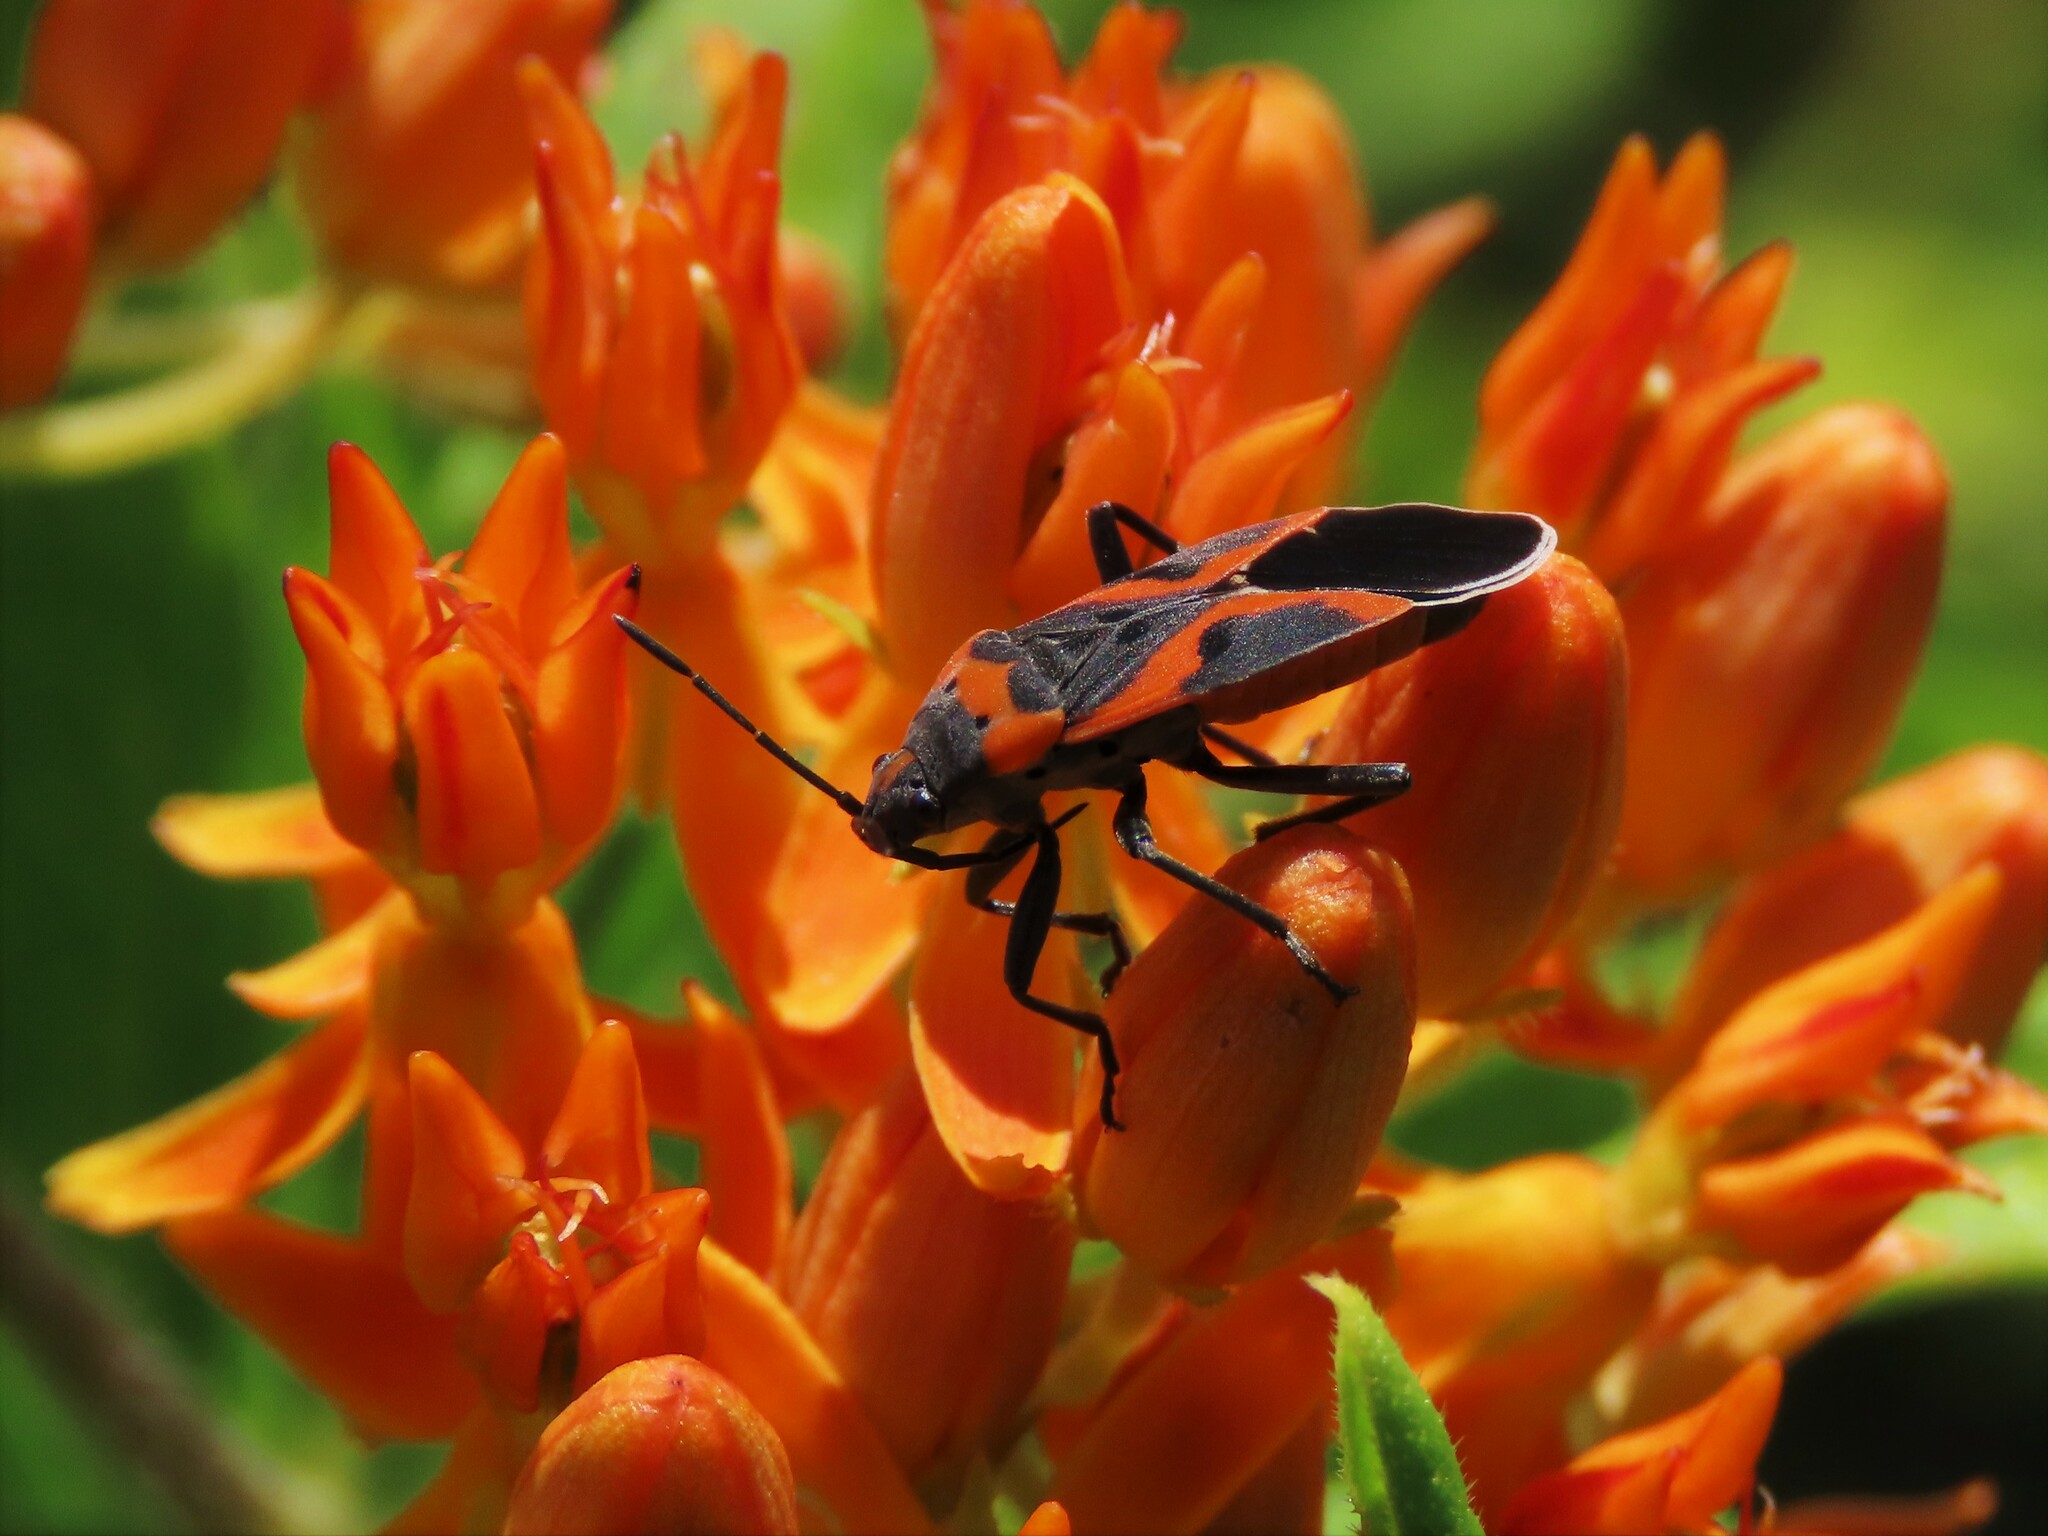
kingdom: Animalia
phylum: Arthropoda
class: Insecta
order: Hemiptera
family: Lygaeidae
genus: Lygaeus
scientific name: Lygaeus kalmii
